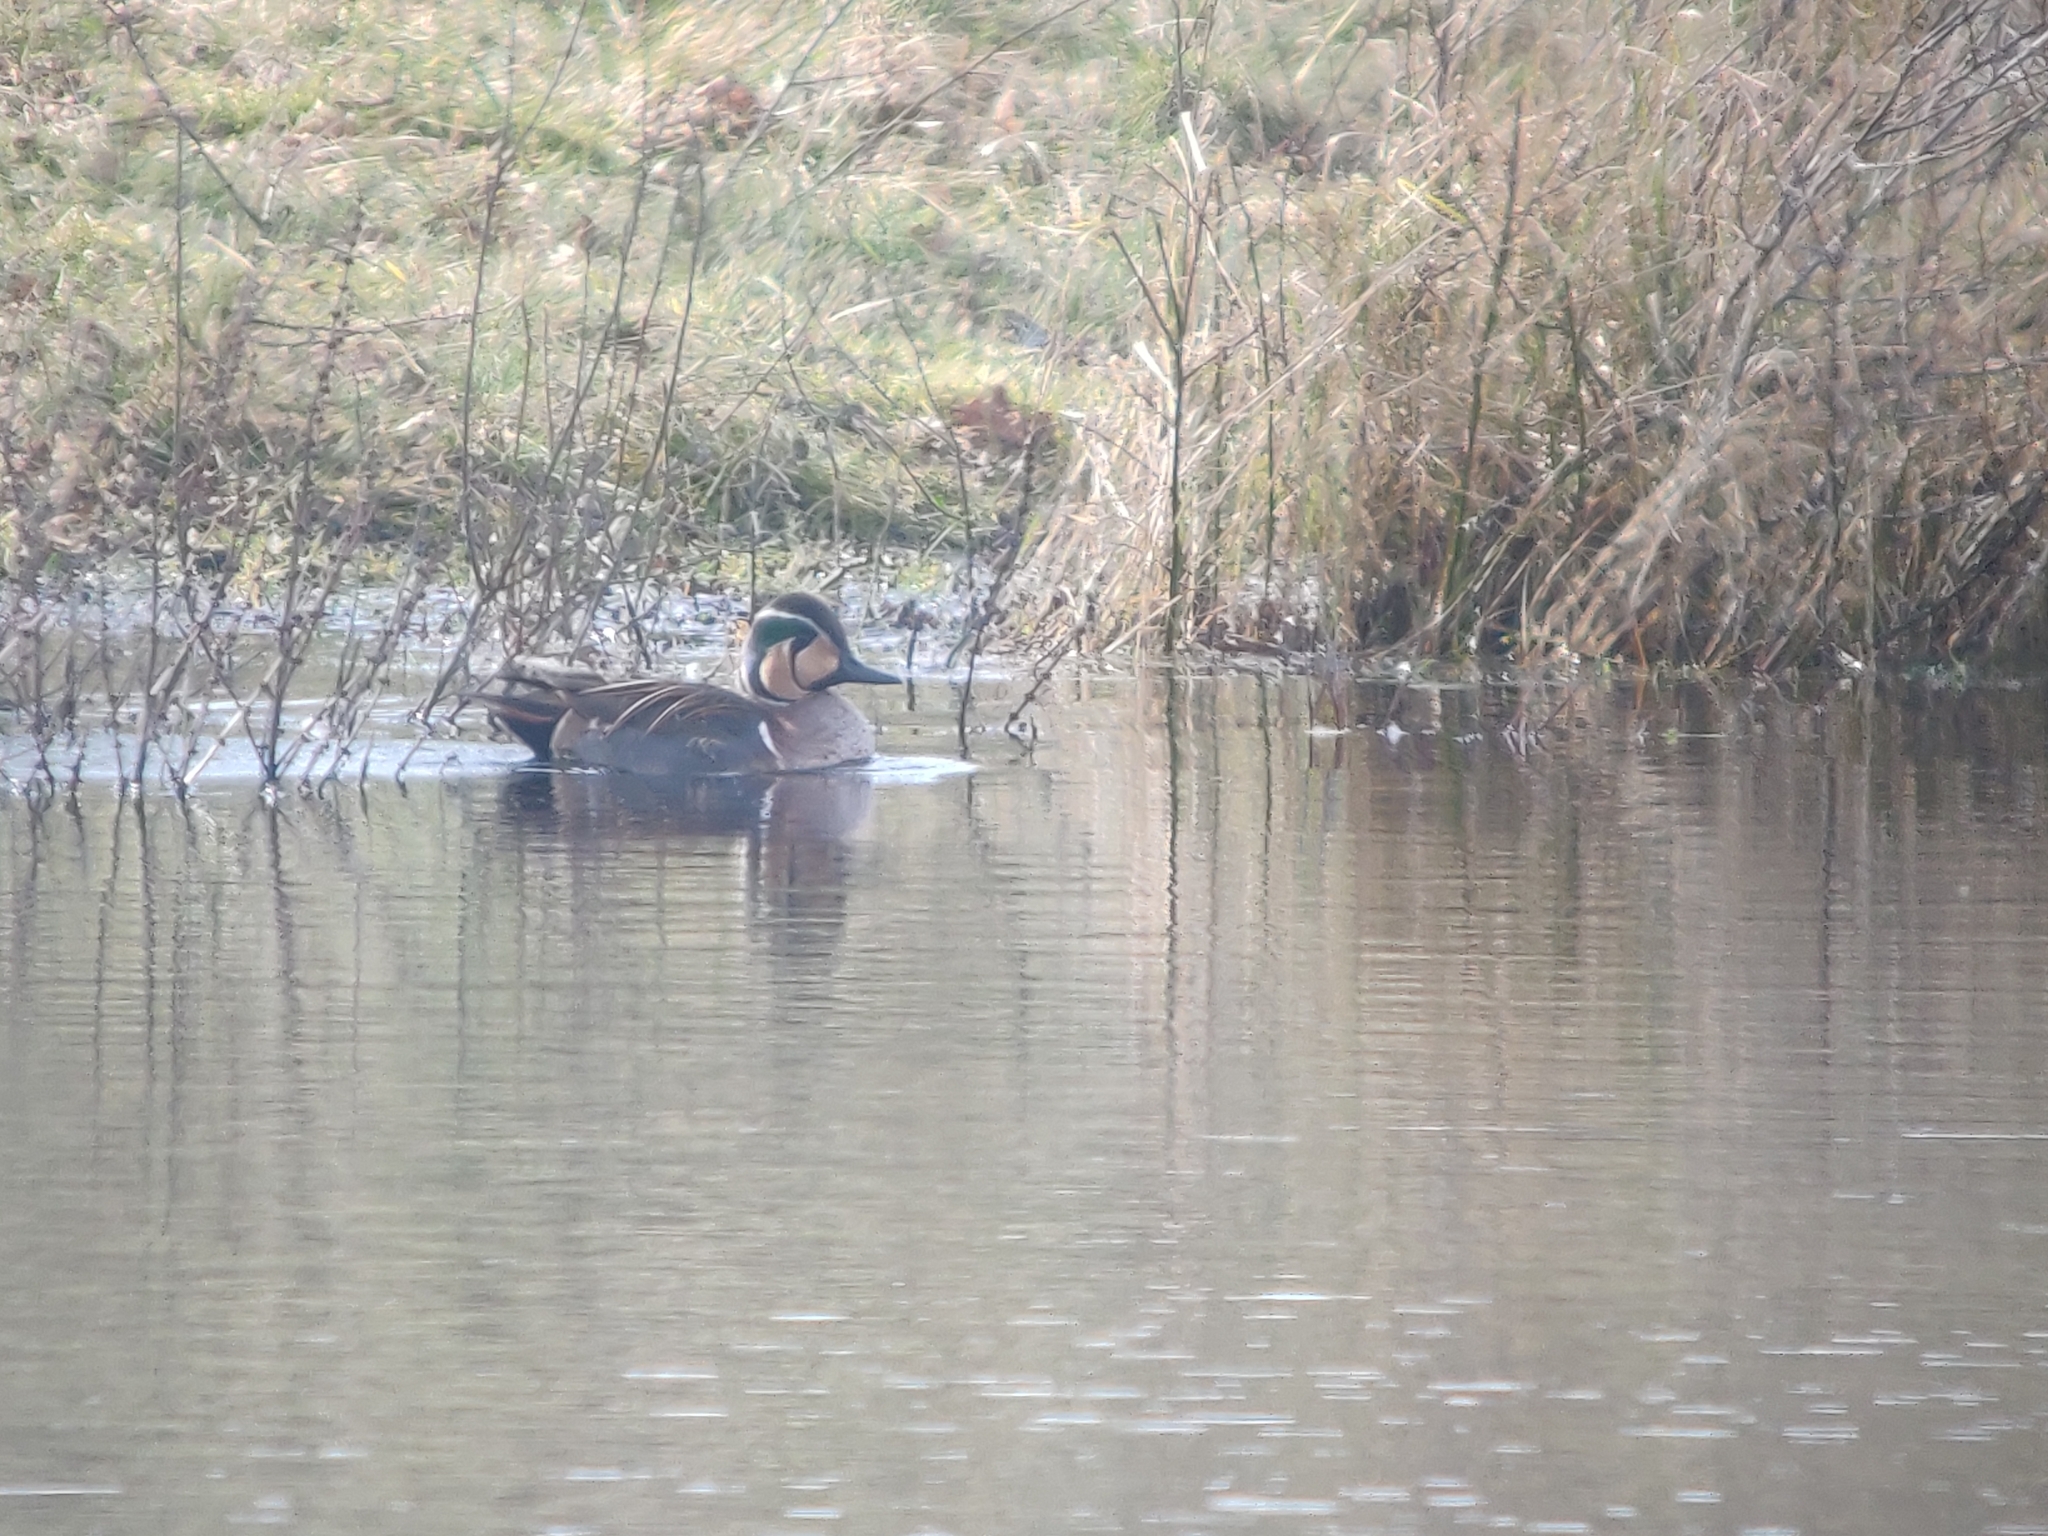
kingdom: Animalia
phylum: Chordata
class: Aves
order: Anseriformes
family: Anatidae
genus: Sibirionetta
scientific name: Sibirionetta formosa
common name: Baikal teal
